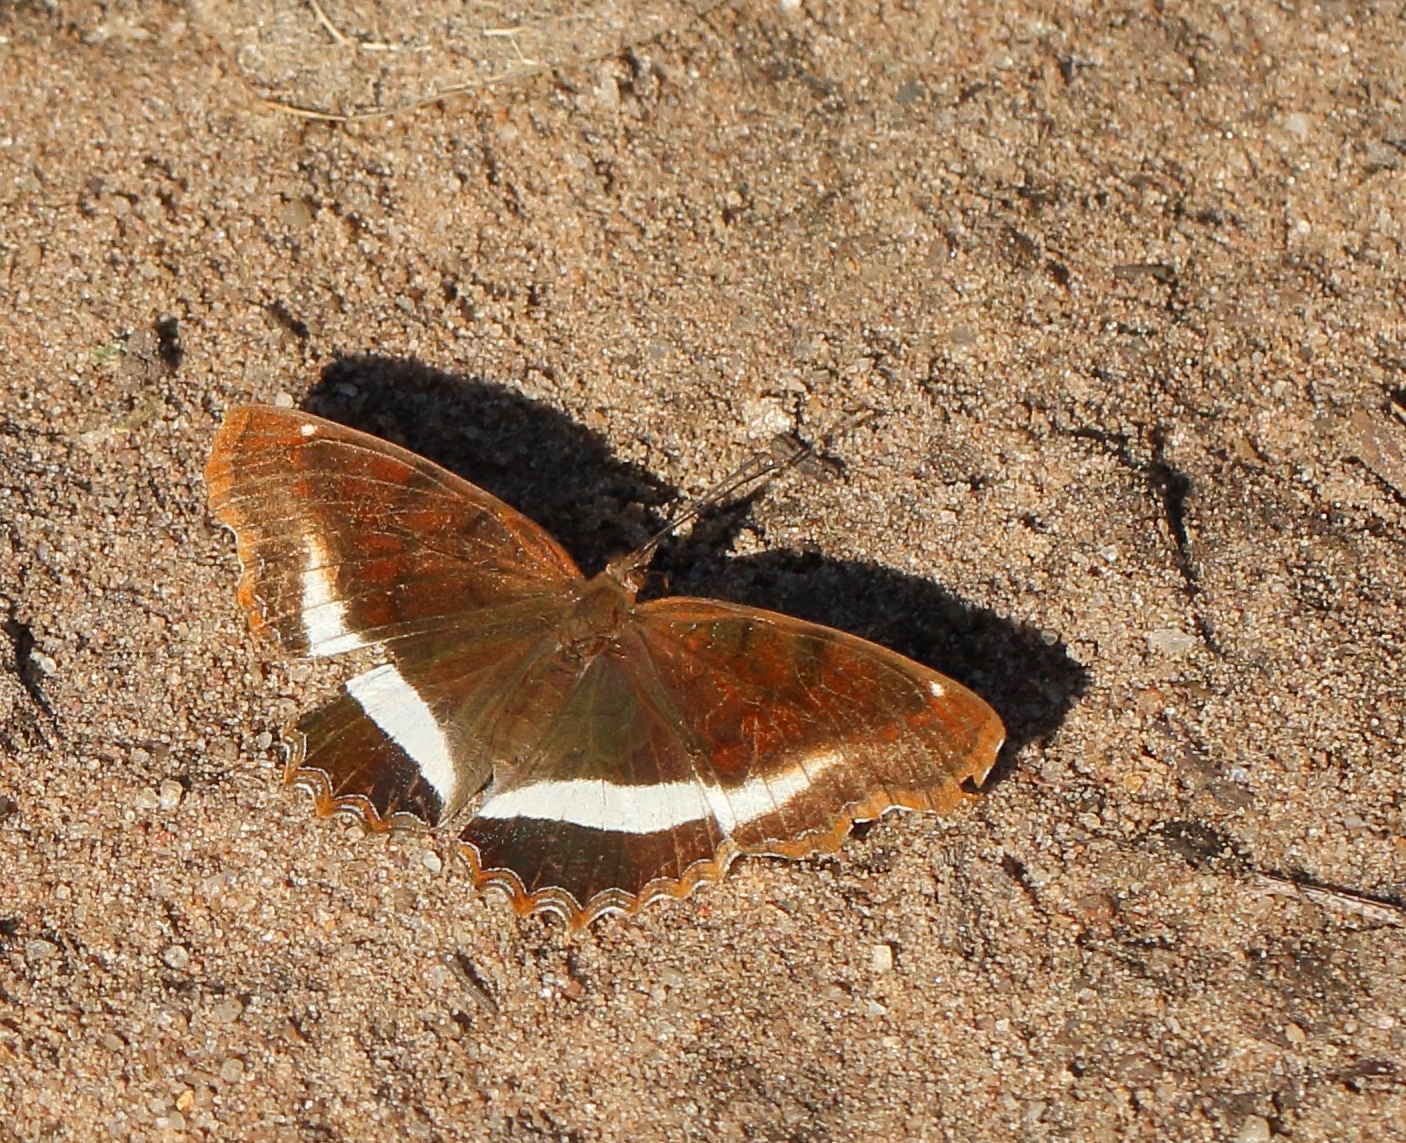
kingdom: Animalia
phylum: Arthropoda
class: Insecta
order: Lepidoptera
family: Nymphalidae
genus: Eurytela
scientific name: Eurytela hiarbas
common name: Pied piper
